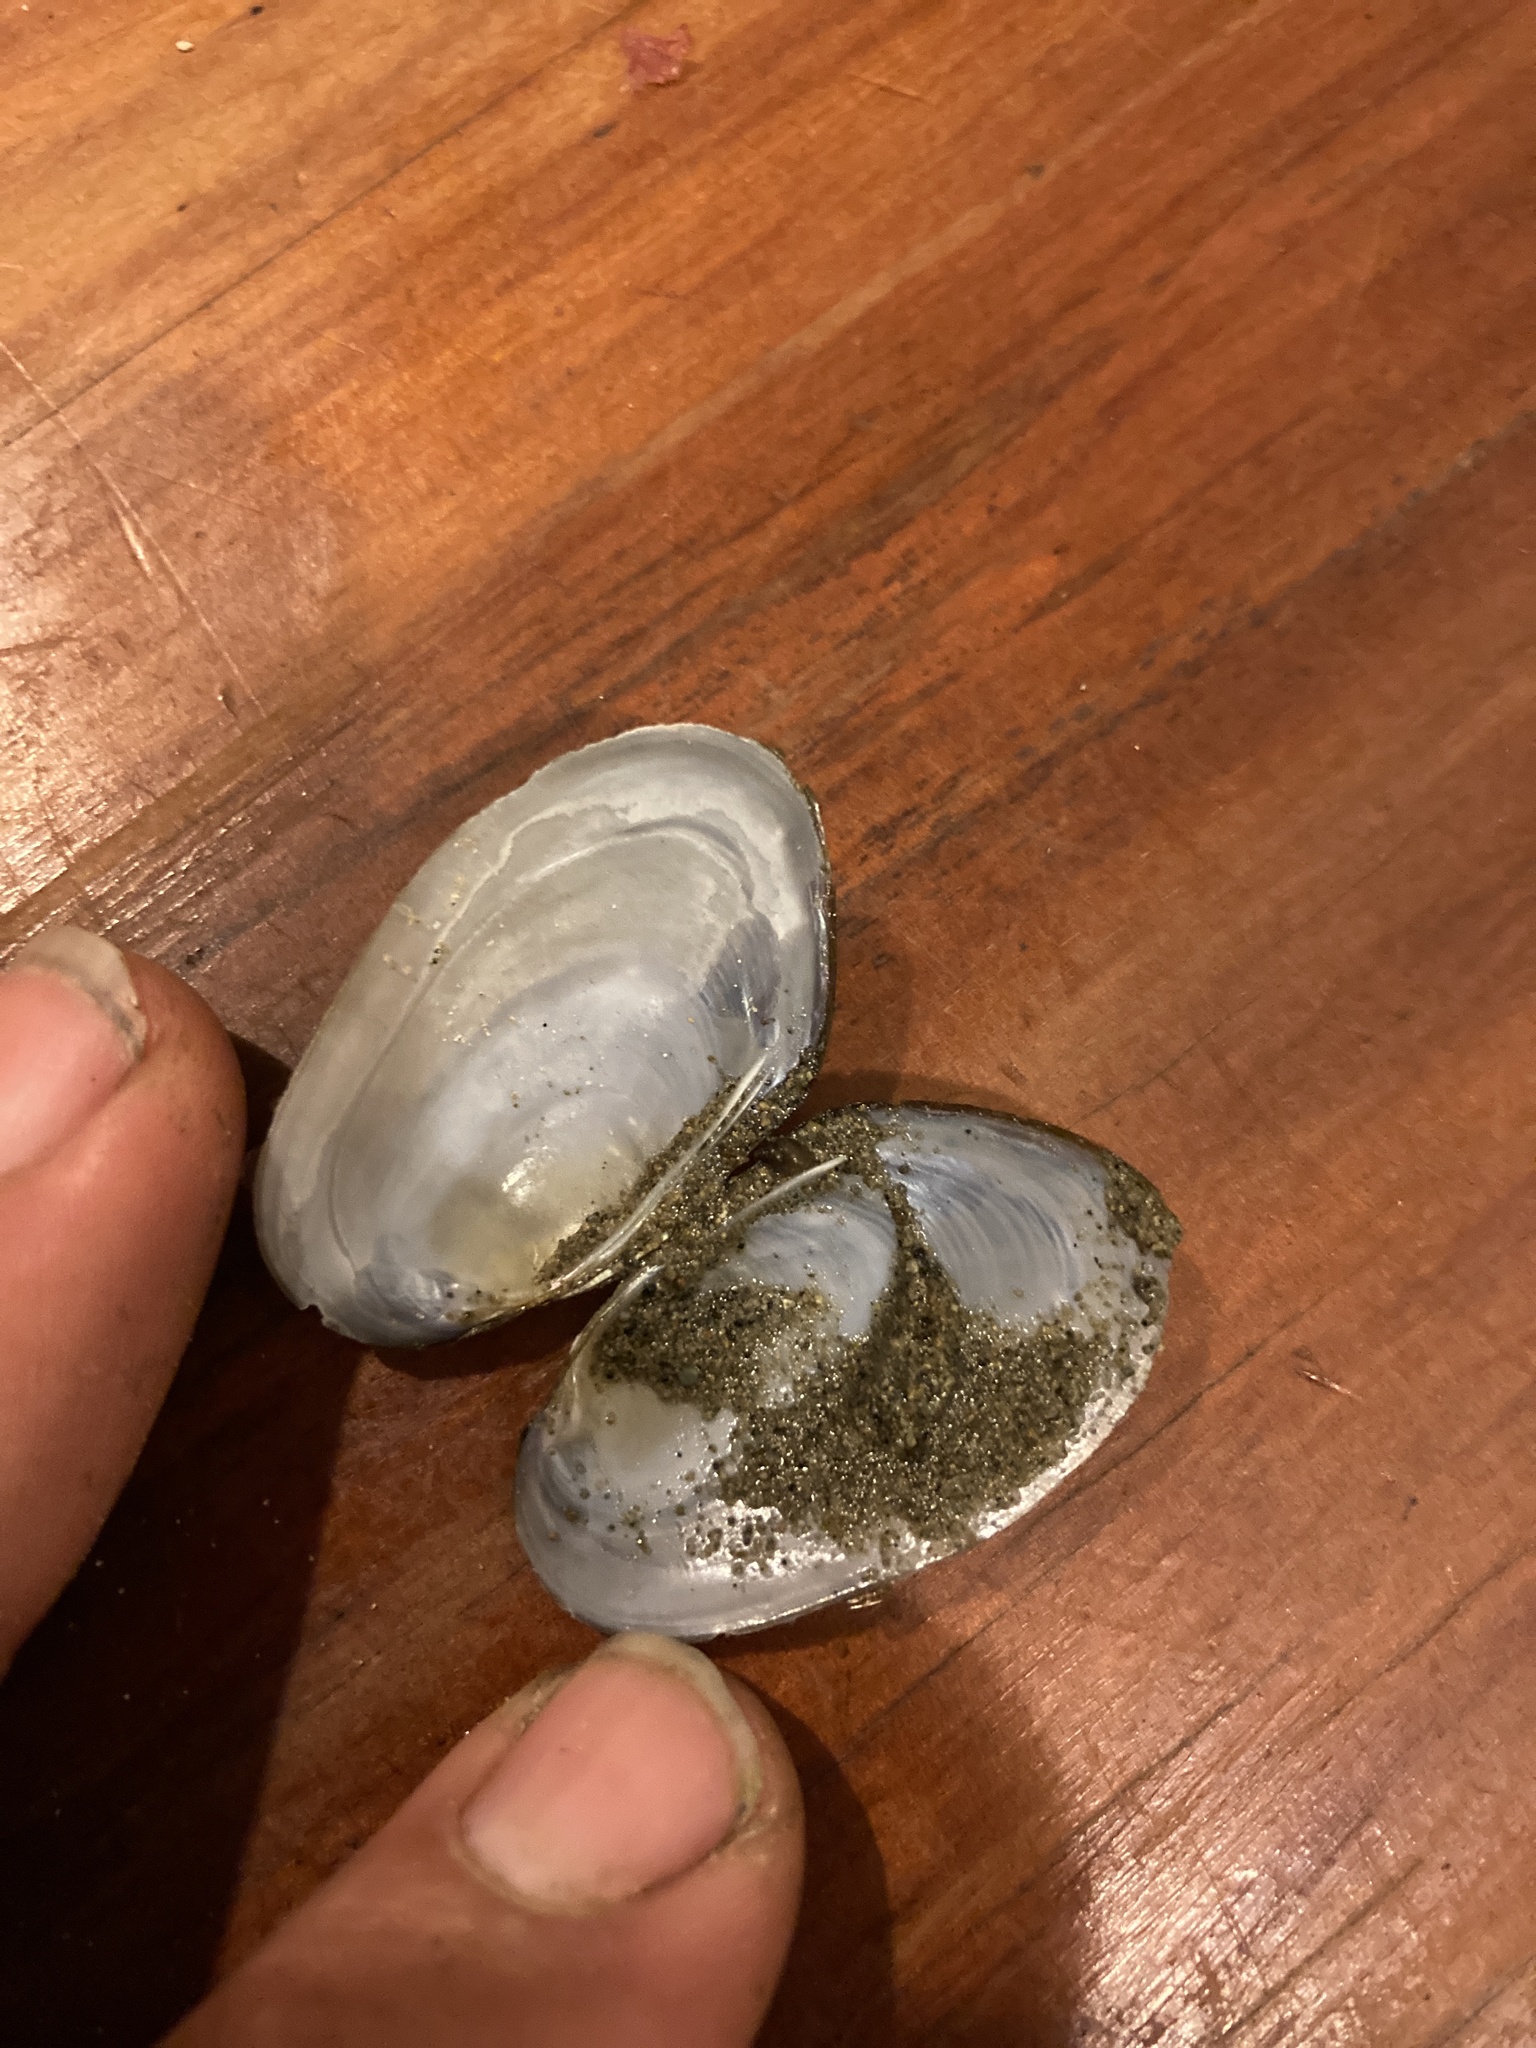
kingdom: Animalia
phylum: Mollusca
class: Bivalvia
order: Unionida
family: Hyriidae
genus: Echyridella
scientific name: Echyridella menziesii
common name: New zealand freshwater mussel
